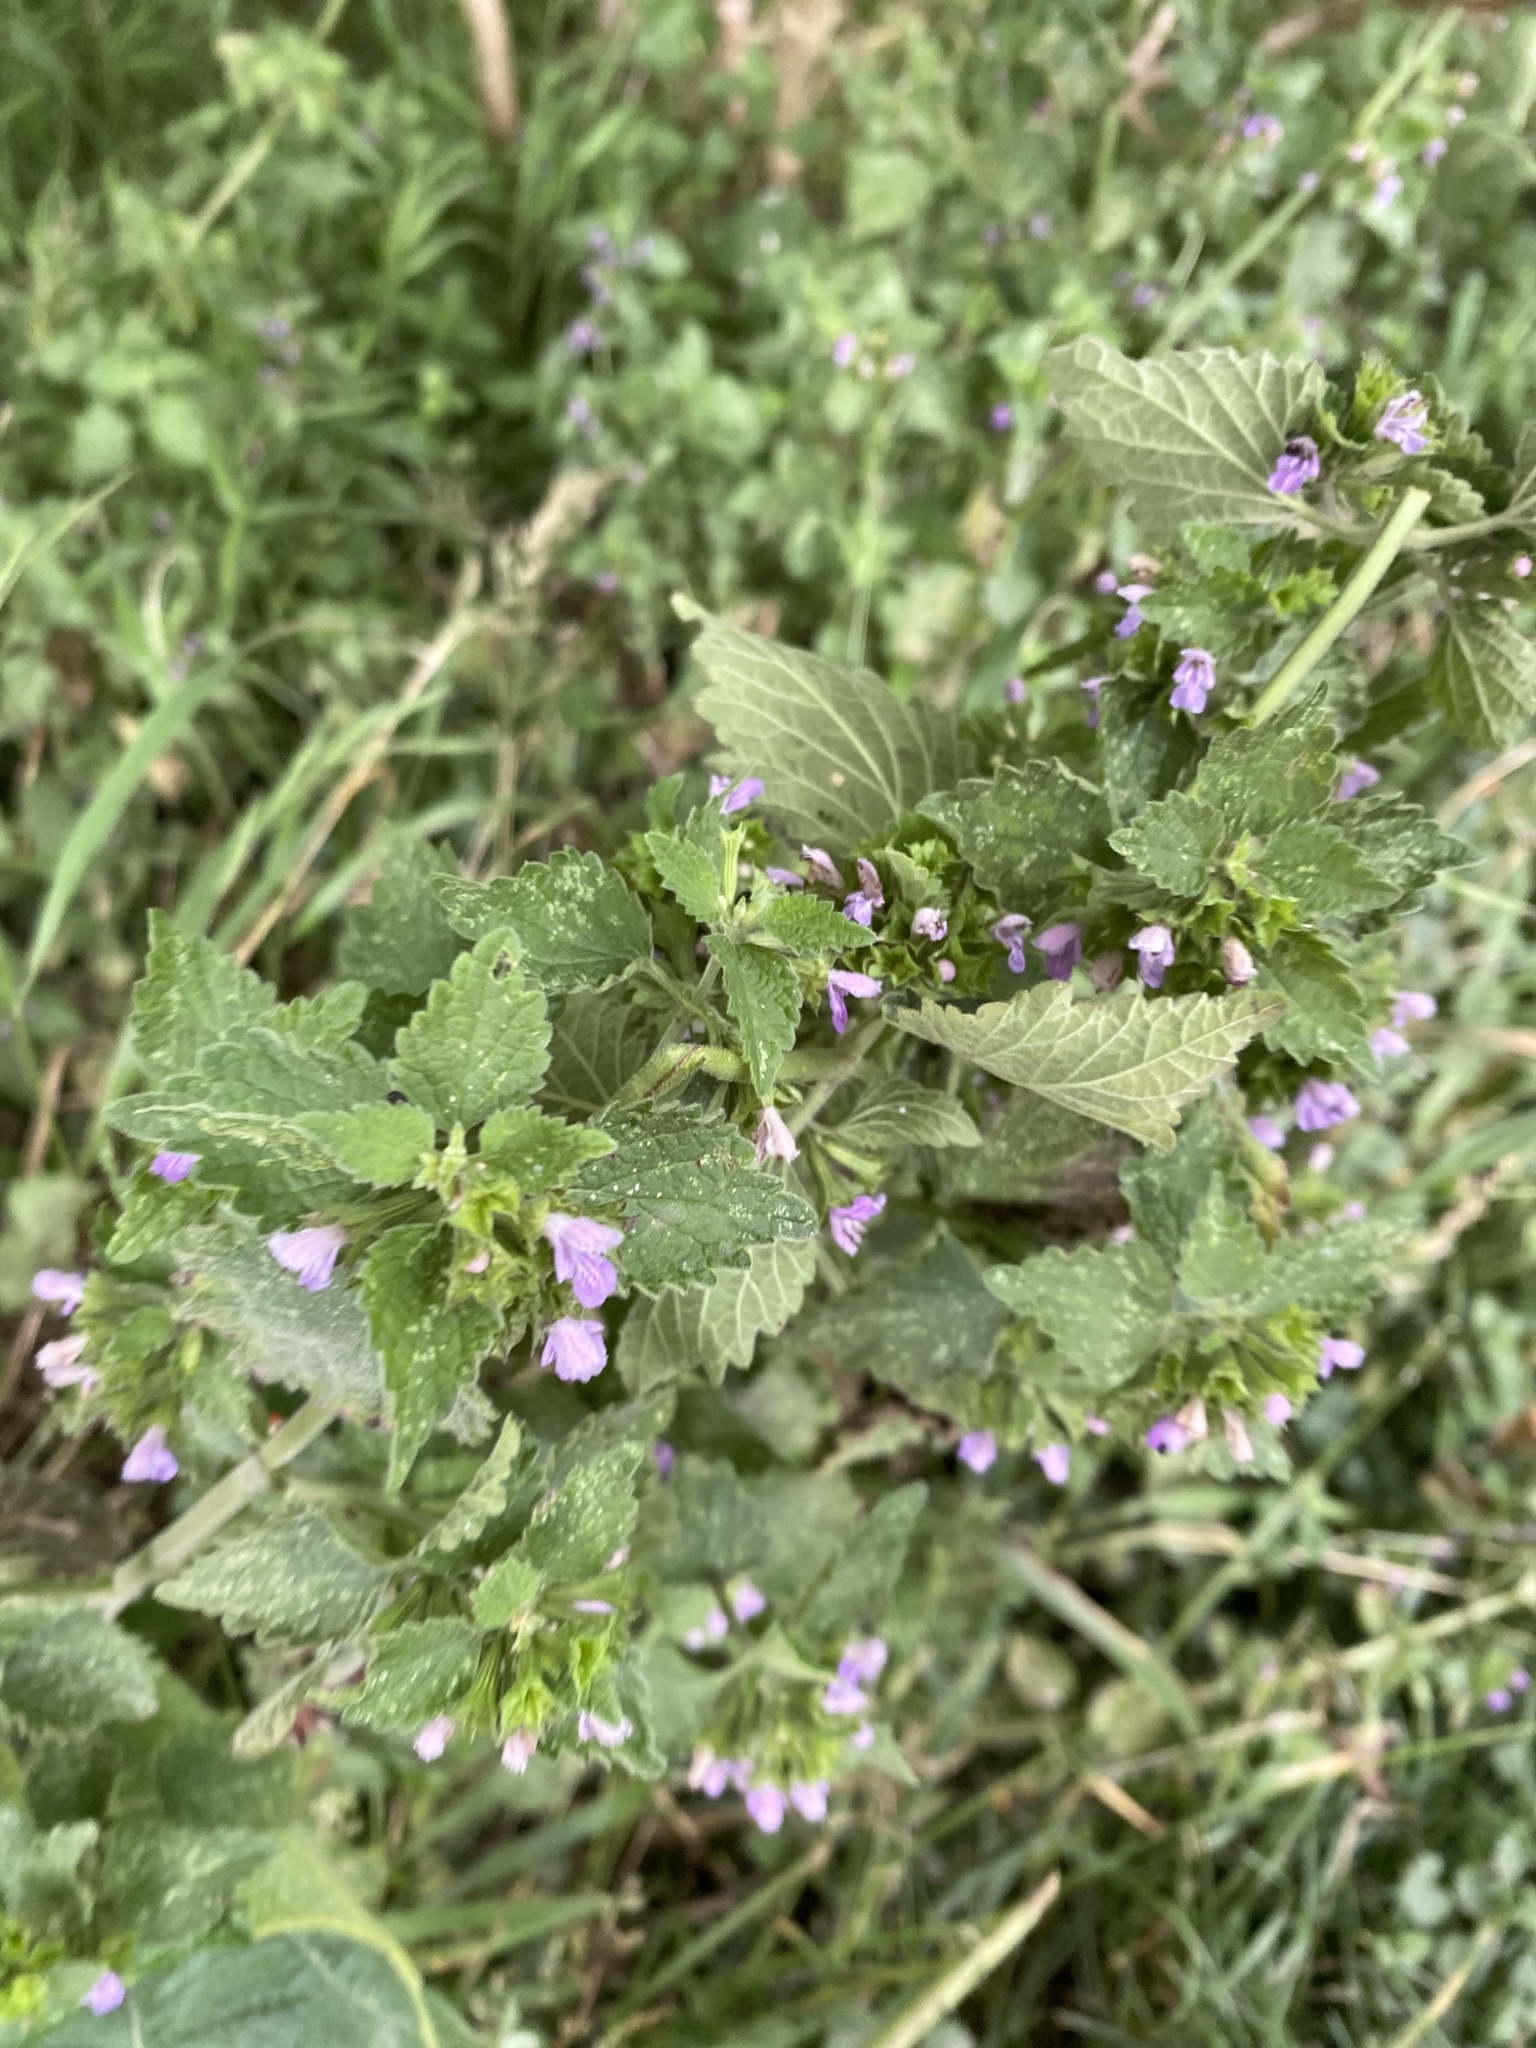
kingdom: Plantae
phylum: Tracheophyta
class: Magnoliopsida
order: Lamiales
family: Lamiaceae
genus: Ballota
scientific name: Ballota nigra
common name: Black horehound
